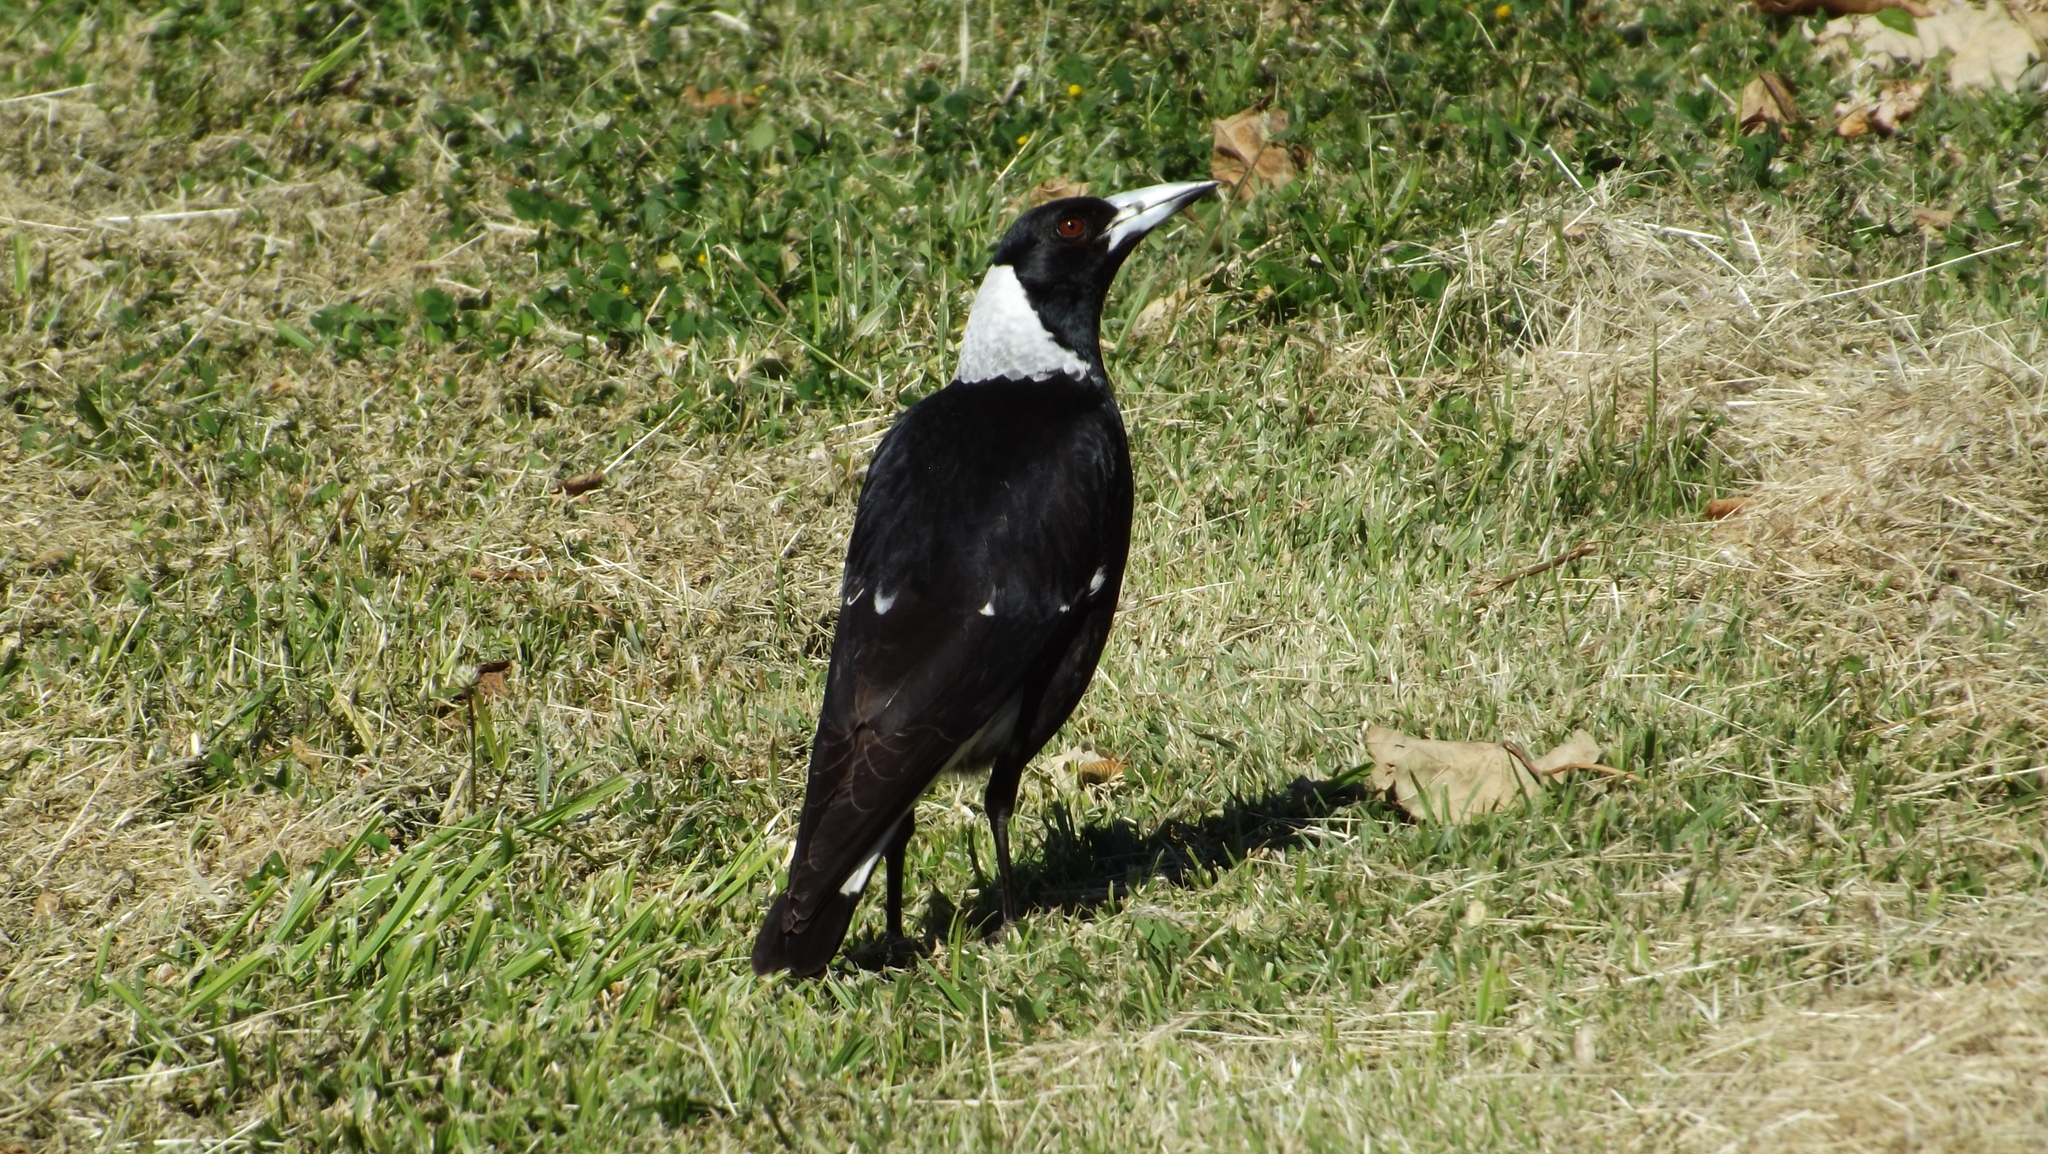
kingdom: Animalia
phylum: Chordata
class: Aves
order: Passeriformes
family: Cracticidae
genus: Gymnorhina
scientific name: Gymnorhina tibicen
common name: Australian magpie
